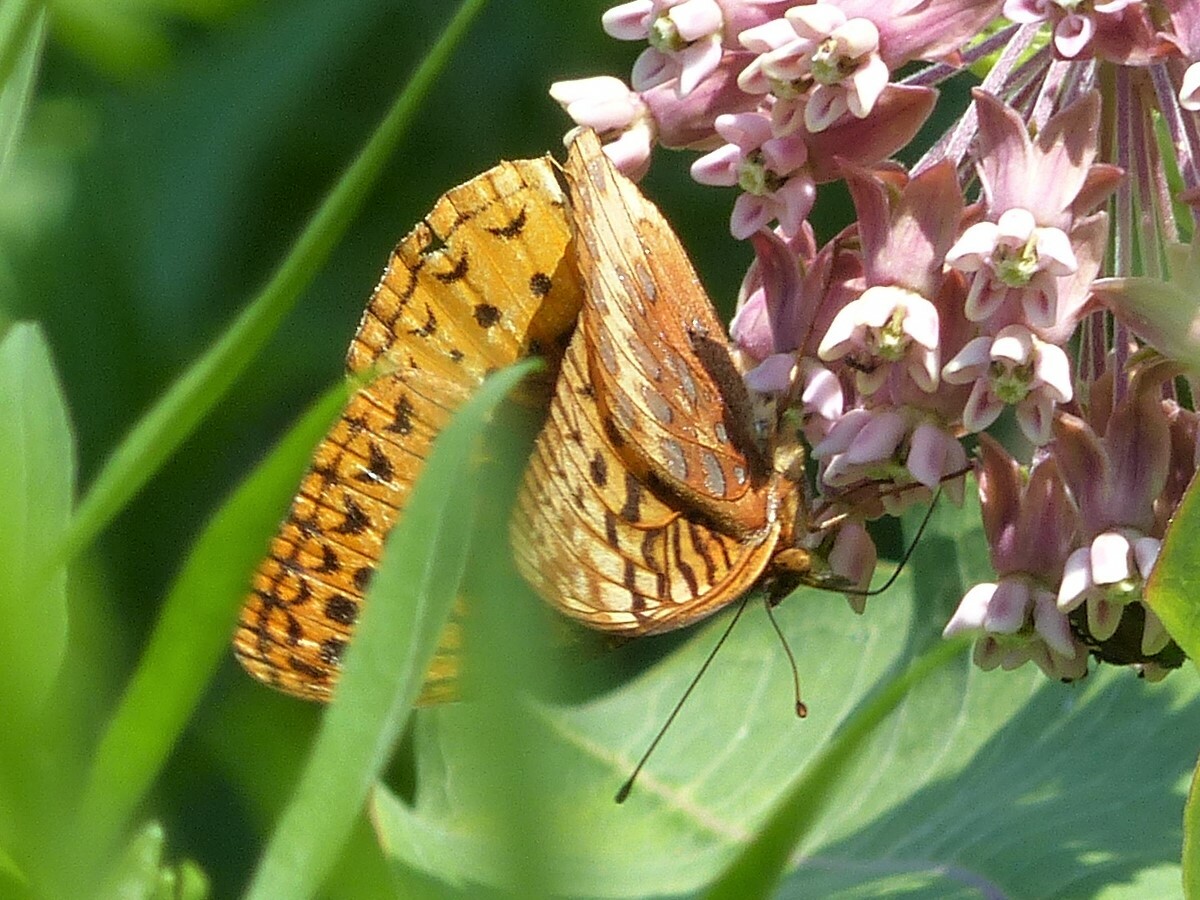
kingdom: Animalia
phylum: Arthropoda
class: Insecta
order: Lepidoptera
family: Nymphalidae
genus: Speyeria
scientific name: Speyeria cybele
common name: Great spangled fritillary
